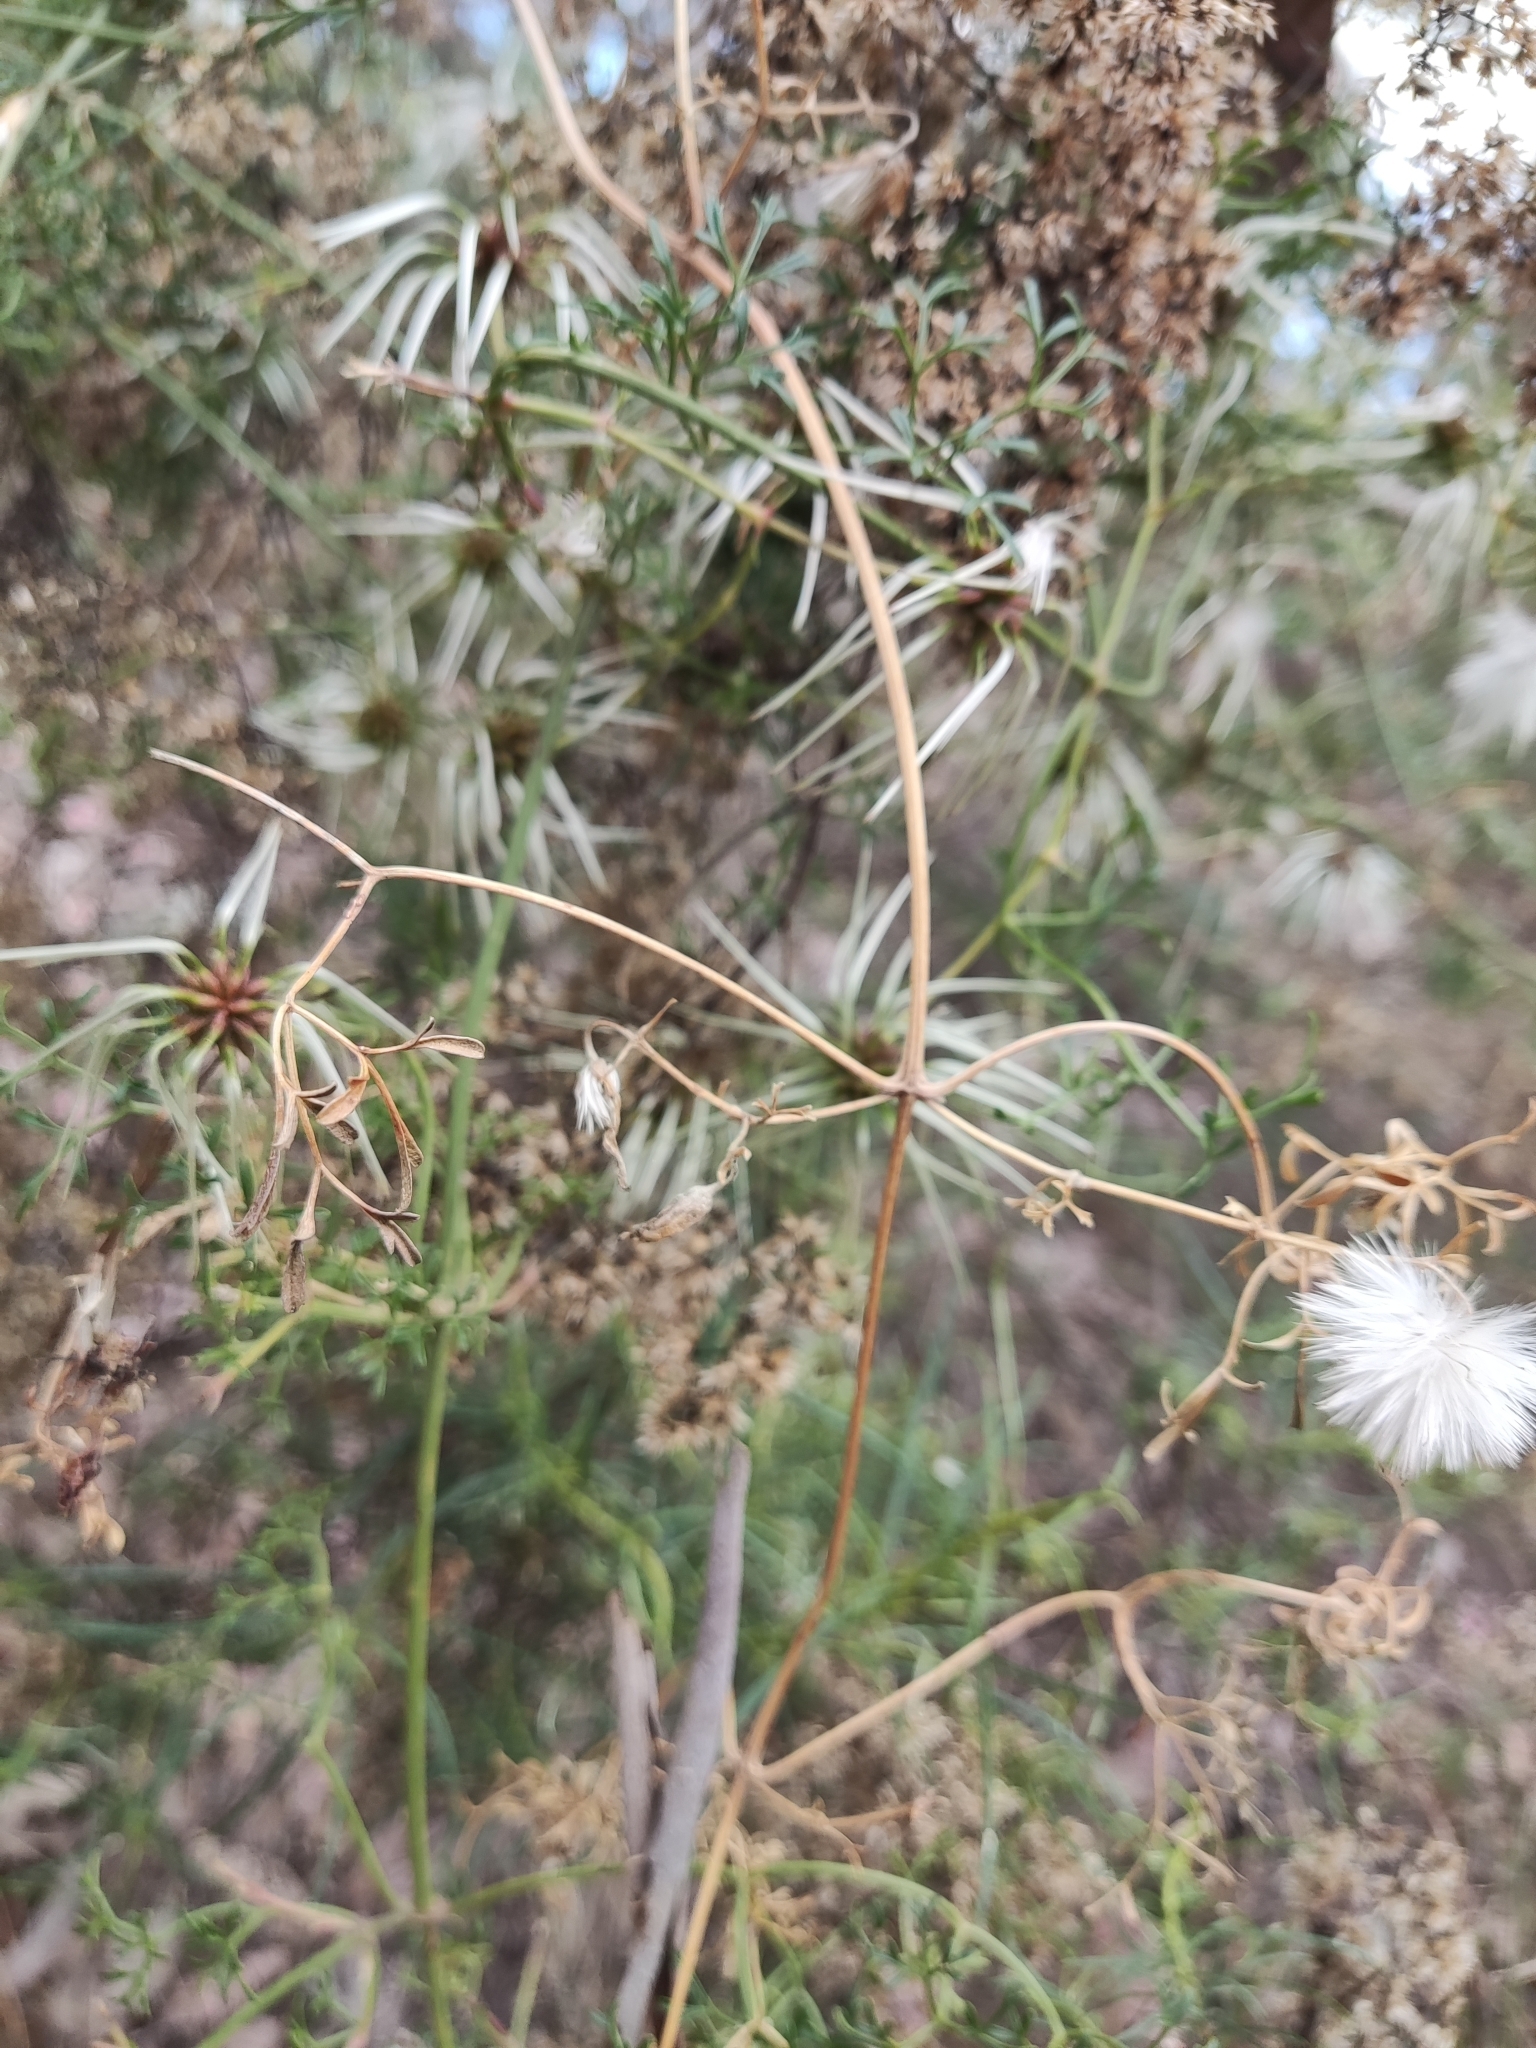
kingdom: Plantae
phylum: Tracheophyta
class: Magnoliopsida
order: Ranunculales
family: Ranunculaceae
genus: Clematis
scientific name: Clematis leptophylla
